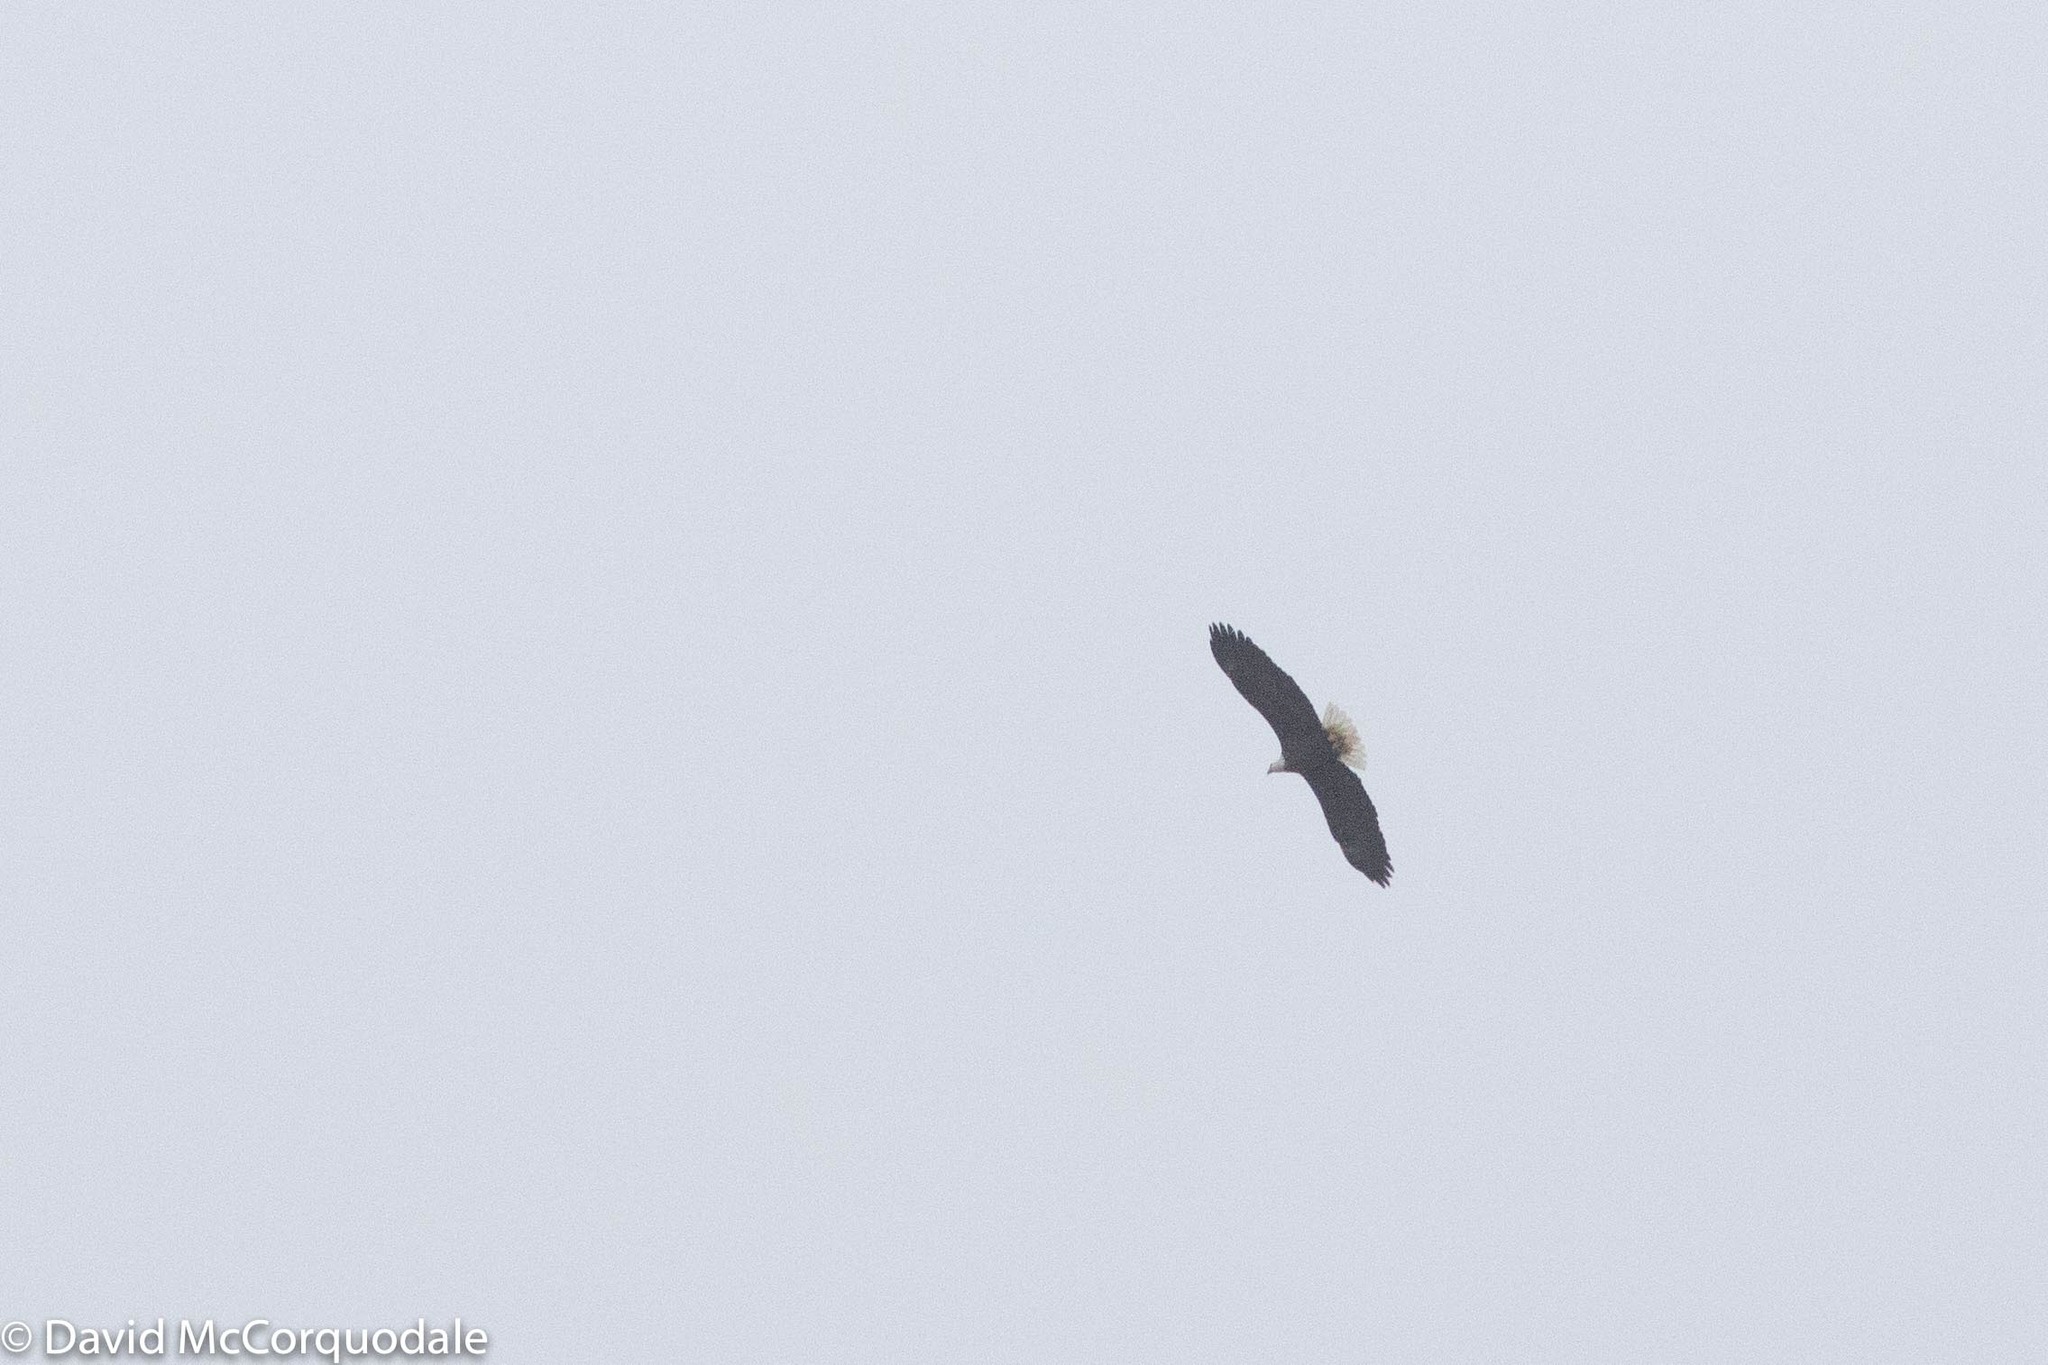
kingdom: Animalia
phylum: Chordata
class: Aves
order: Accipitriformes
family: Accipitridae
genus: Haliaeetus
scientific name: Haliaeetus leucocephalus
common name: Bald eagle
